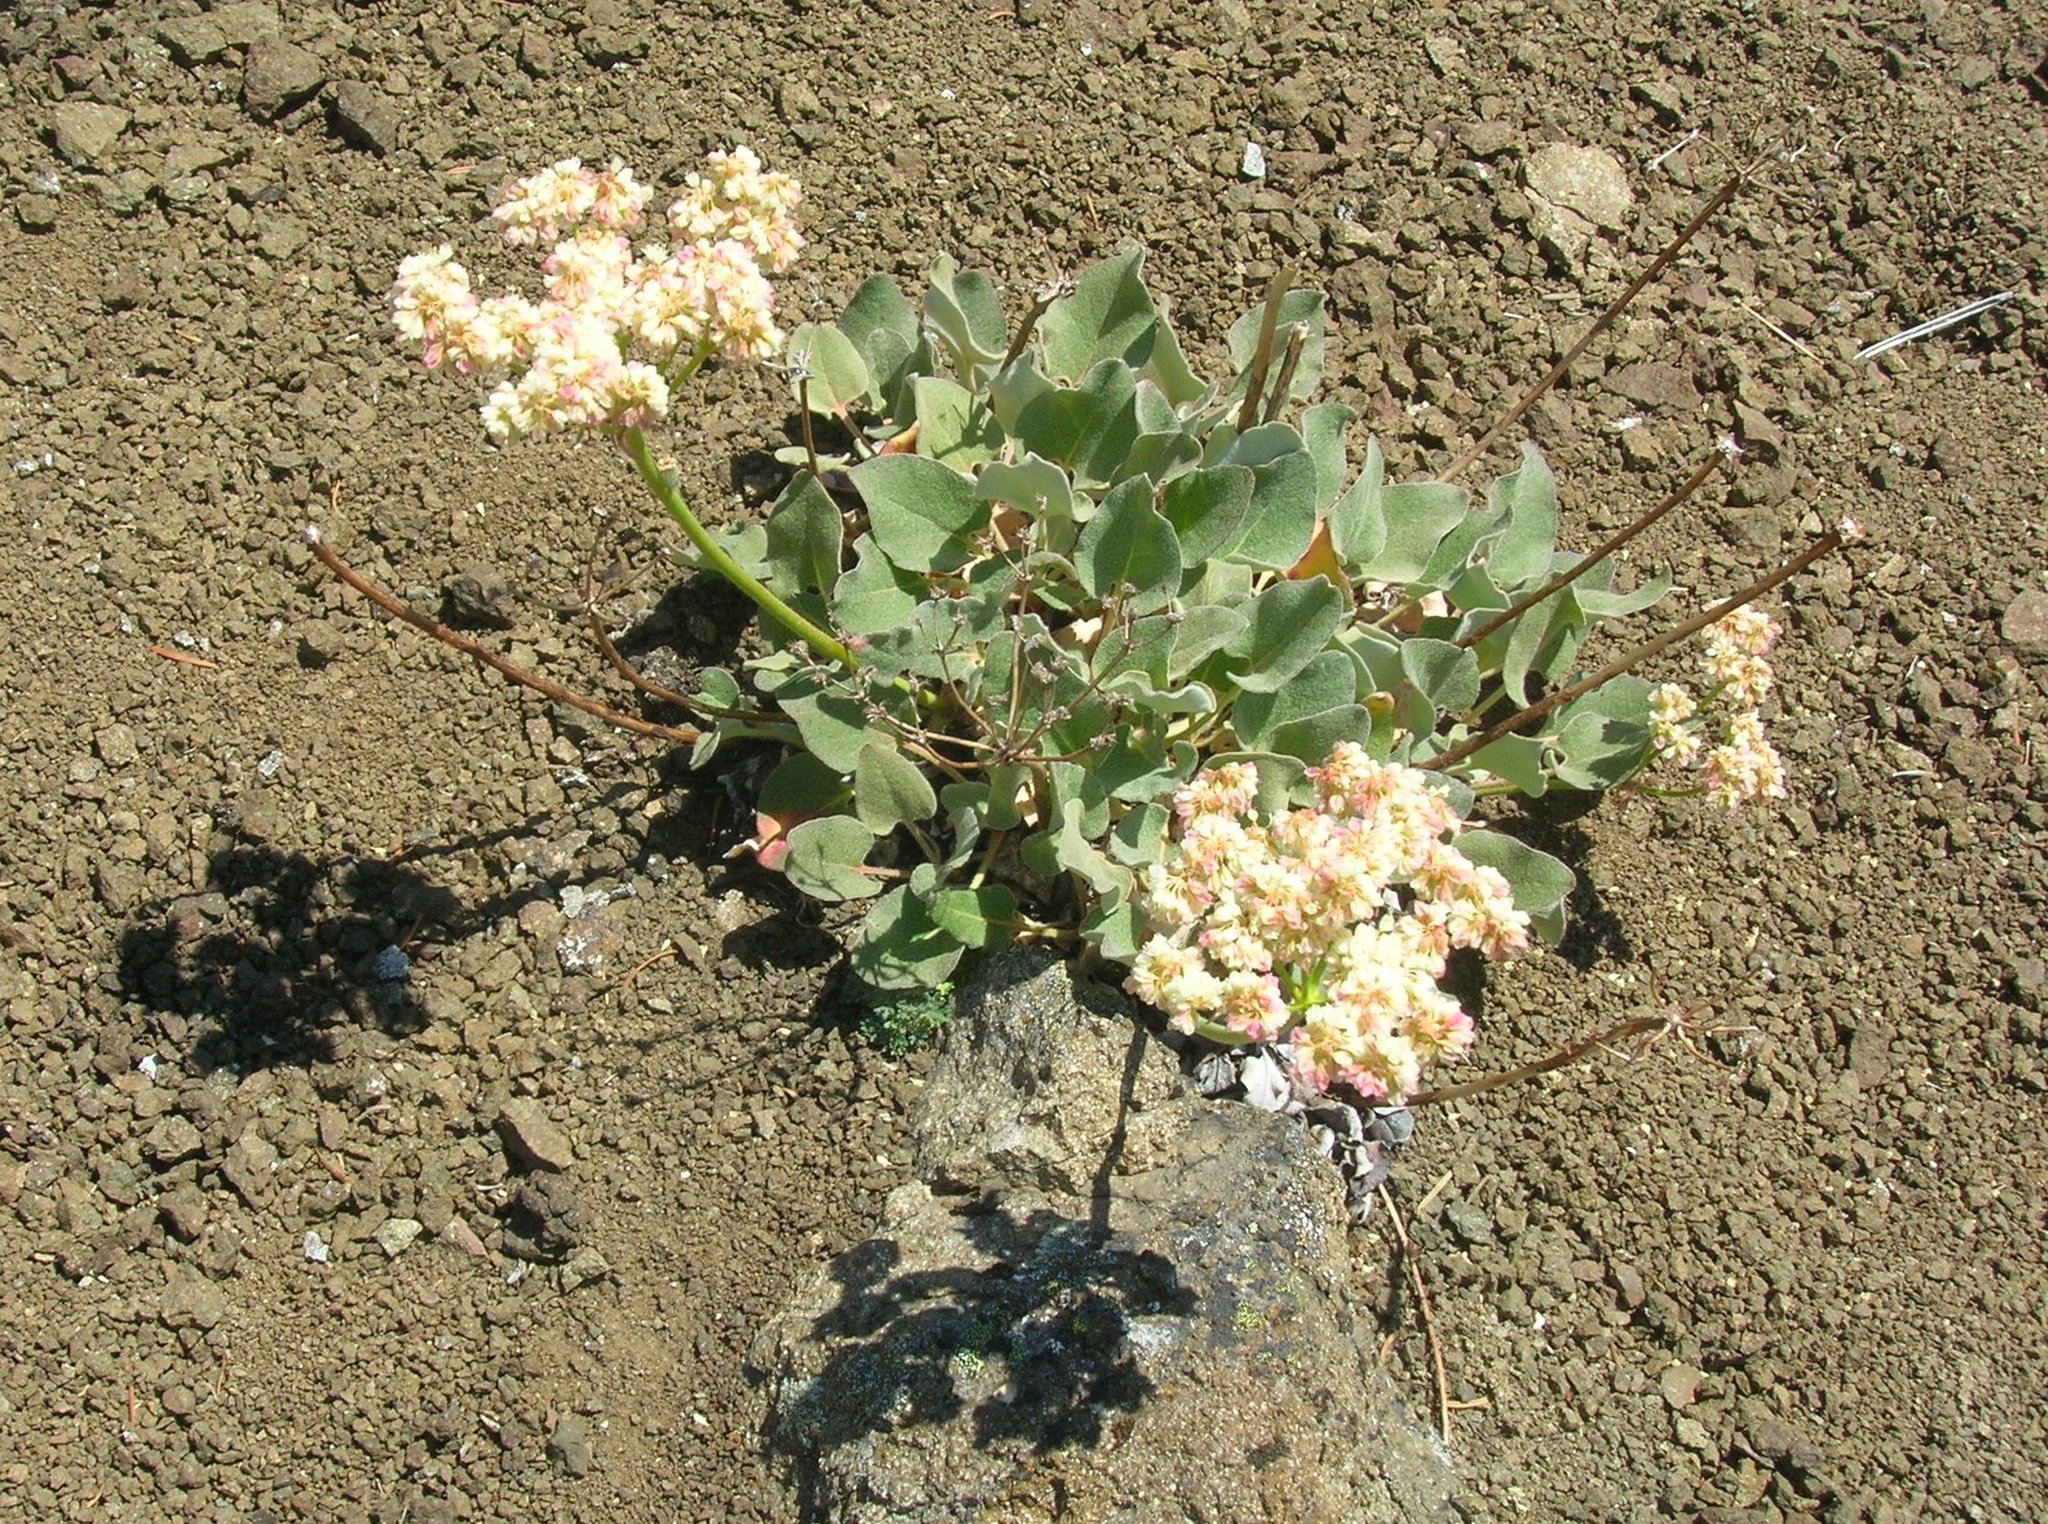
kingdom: Plantae
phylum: Tracheophyta
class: Magnoliopsida
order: Caryophyllales
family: Polygonaceae
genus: Eriogonum
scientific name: Eriogonum compositum
